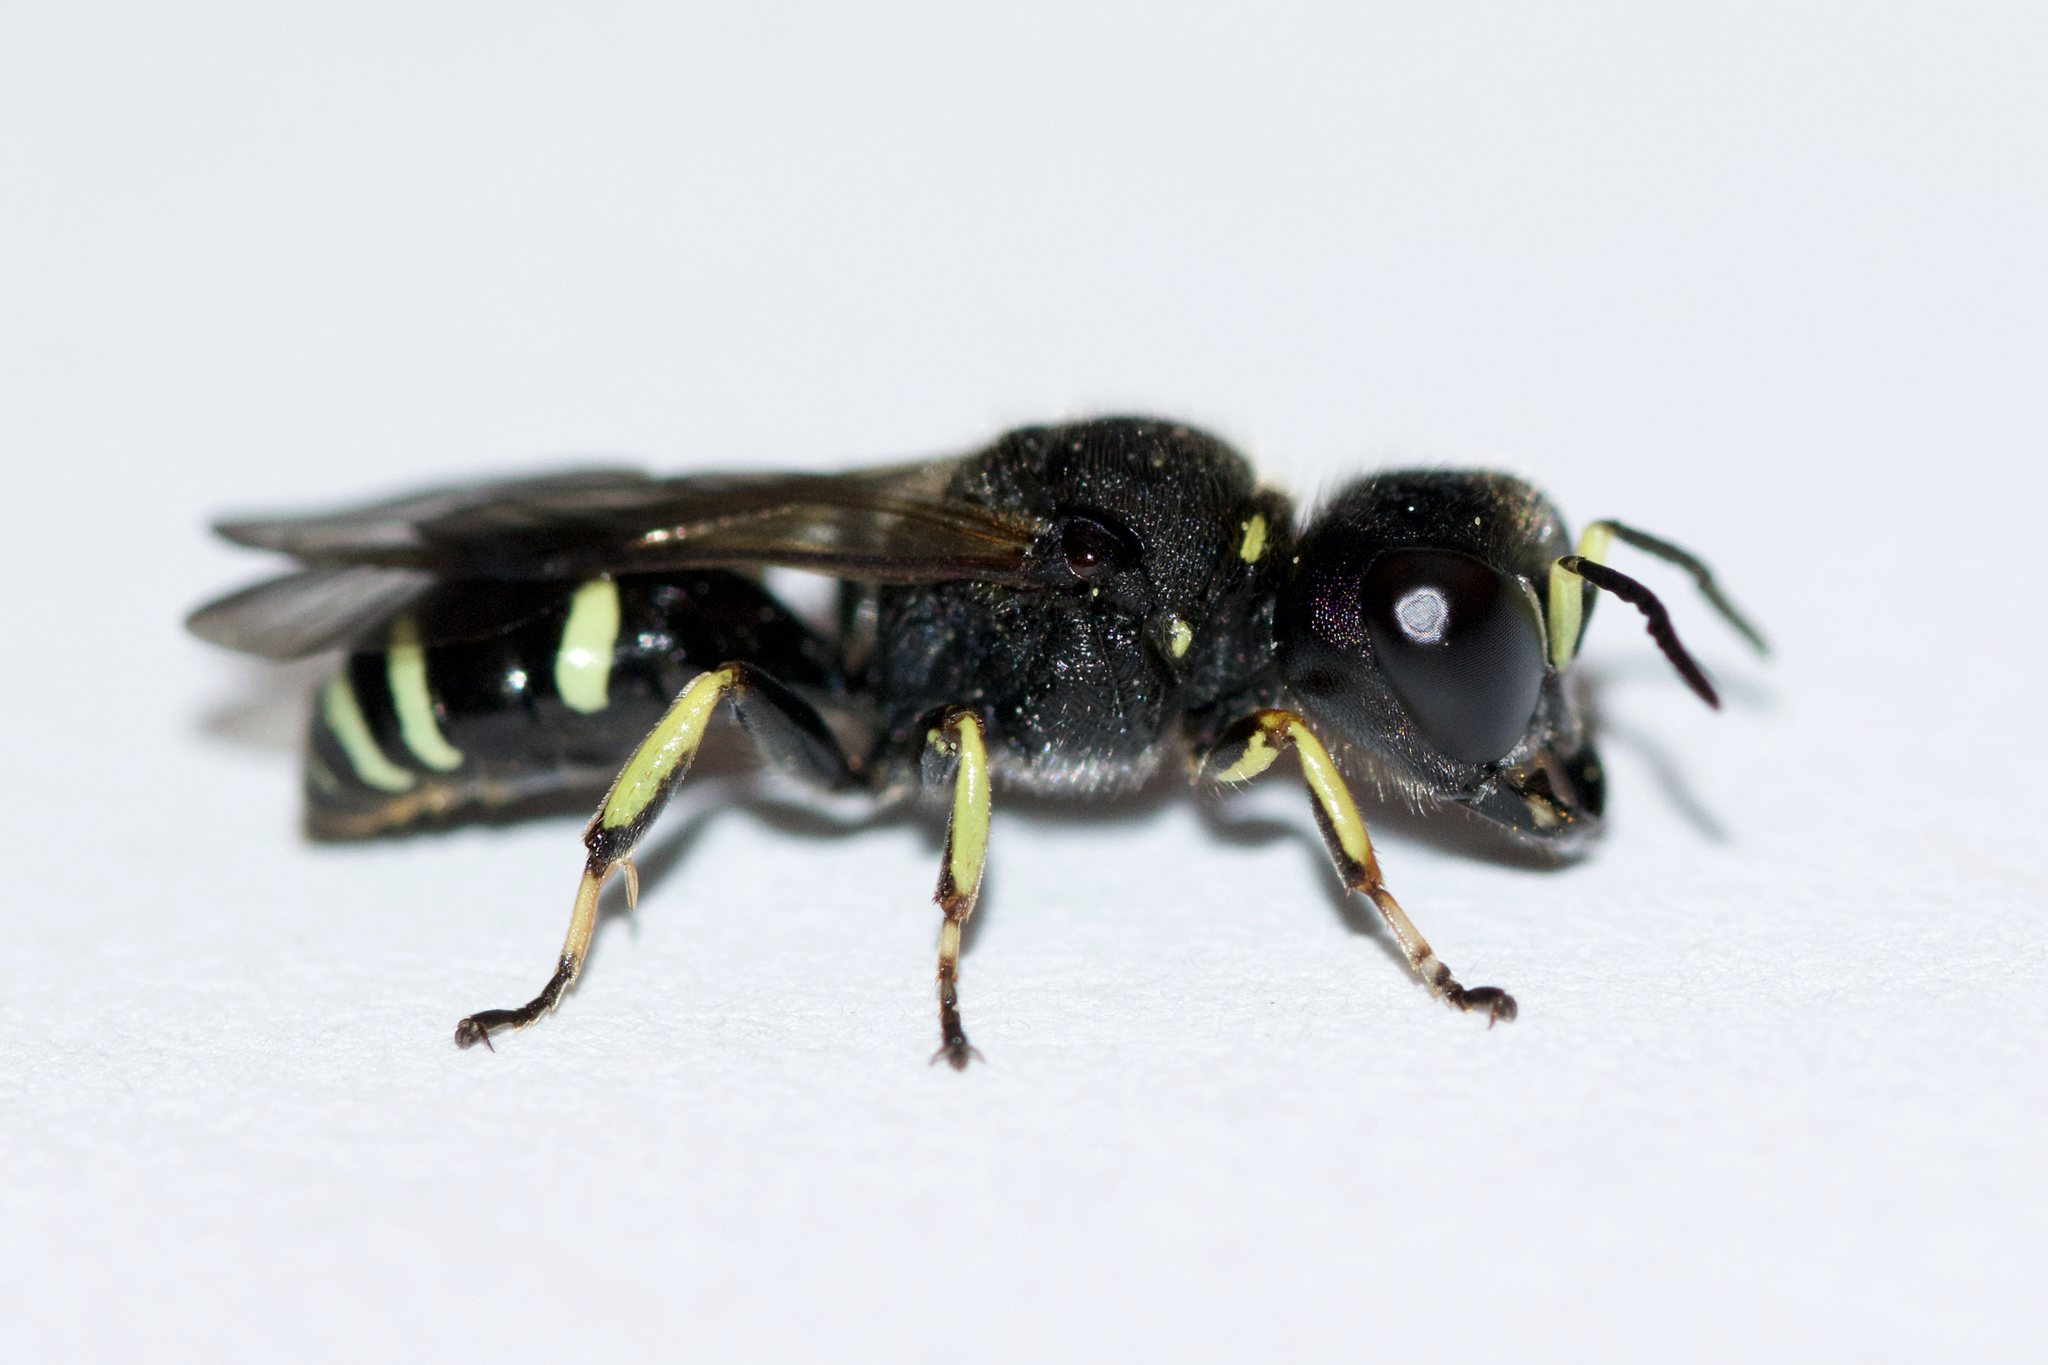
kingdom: Animalia
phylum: Arthropoda
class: Insecta
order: Hymenoptera
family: Crabronidae
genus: Ectemnius
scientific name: Ectemnius continuus
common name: Common ectemnius
